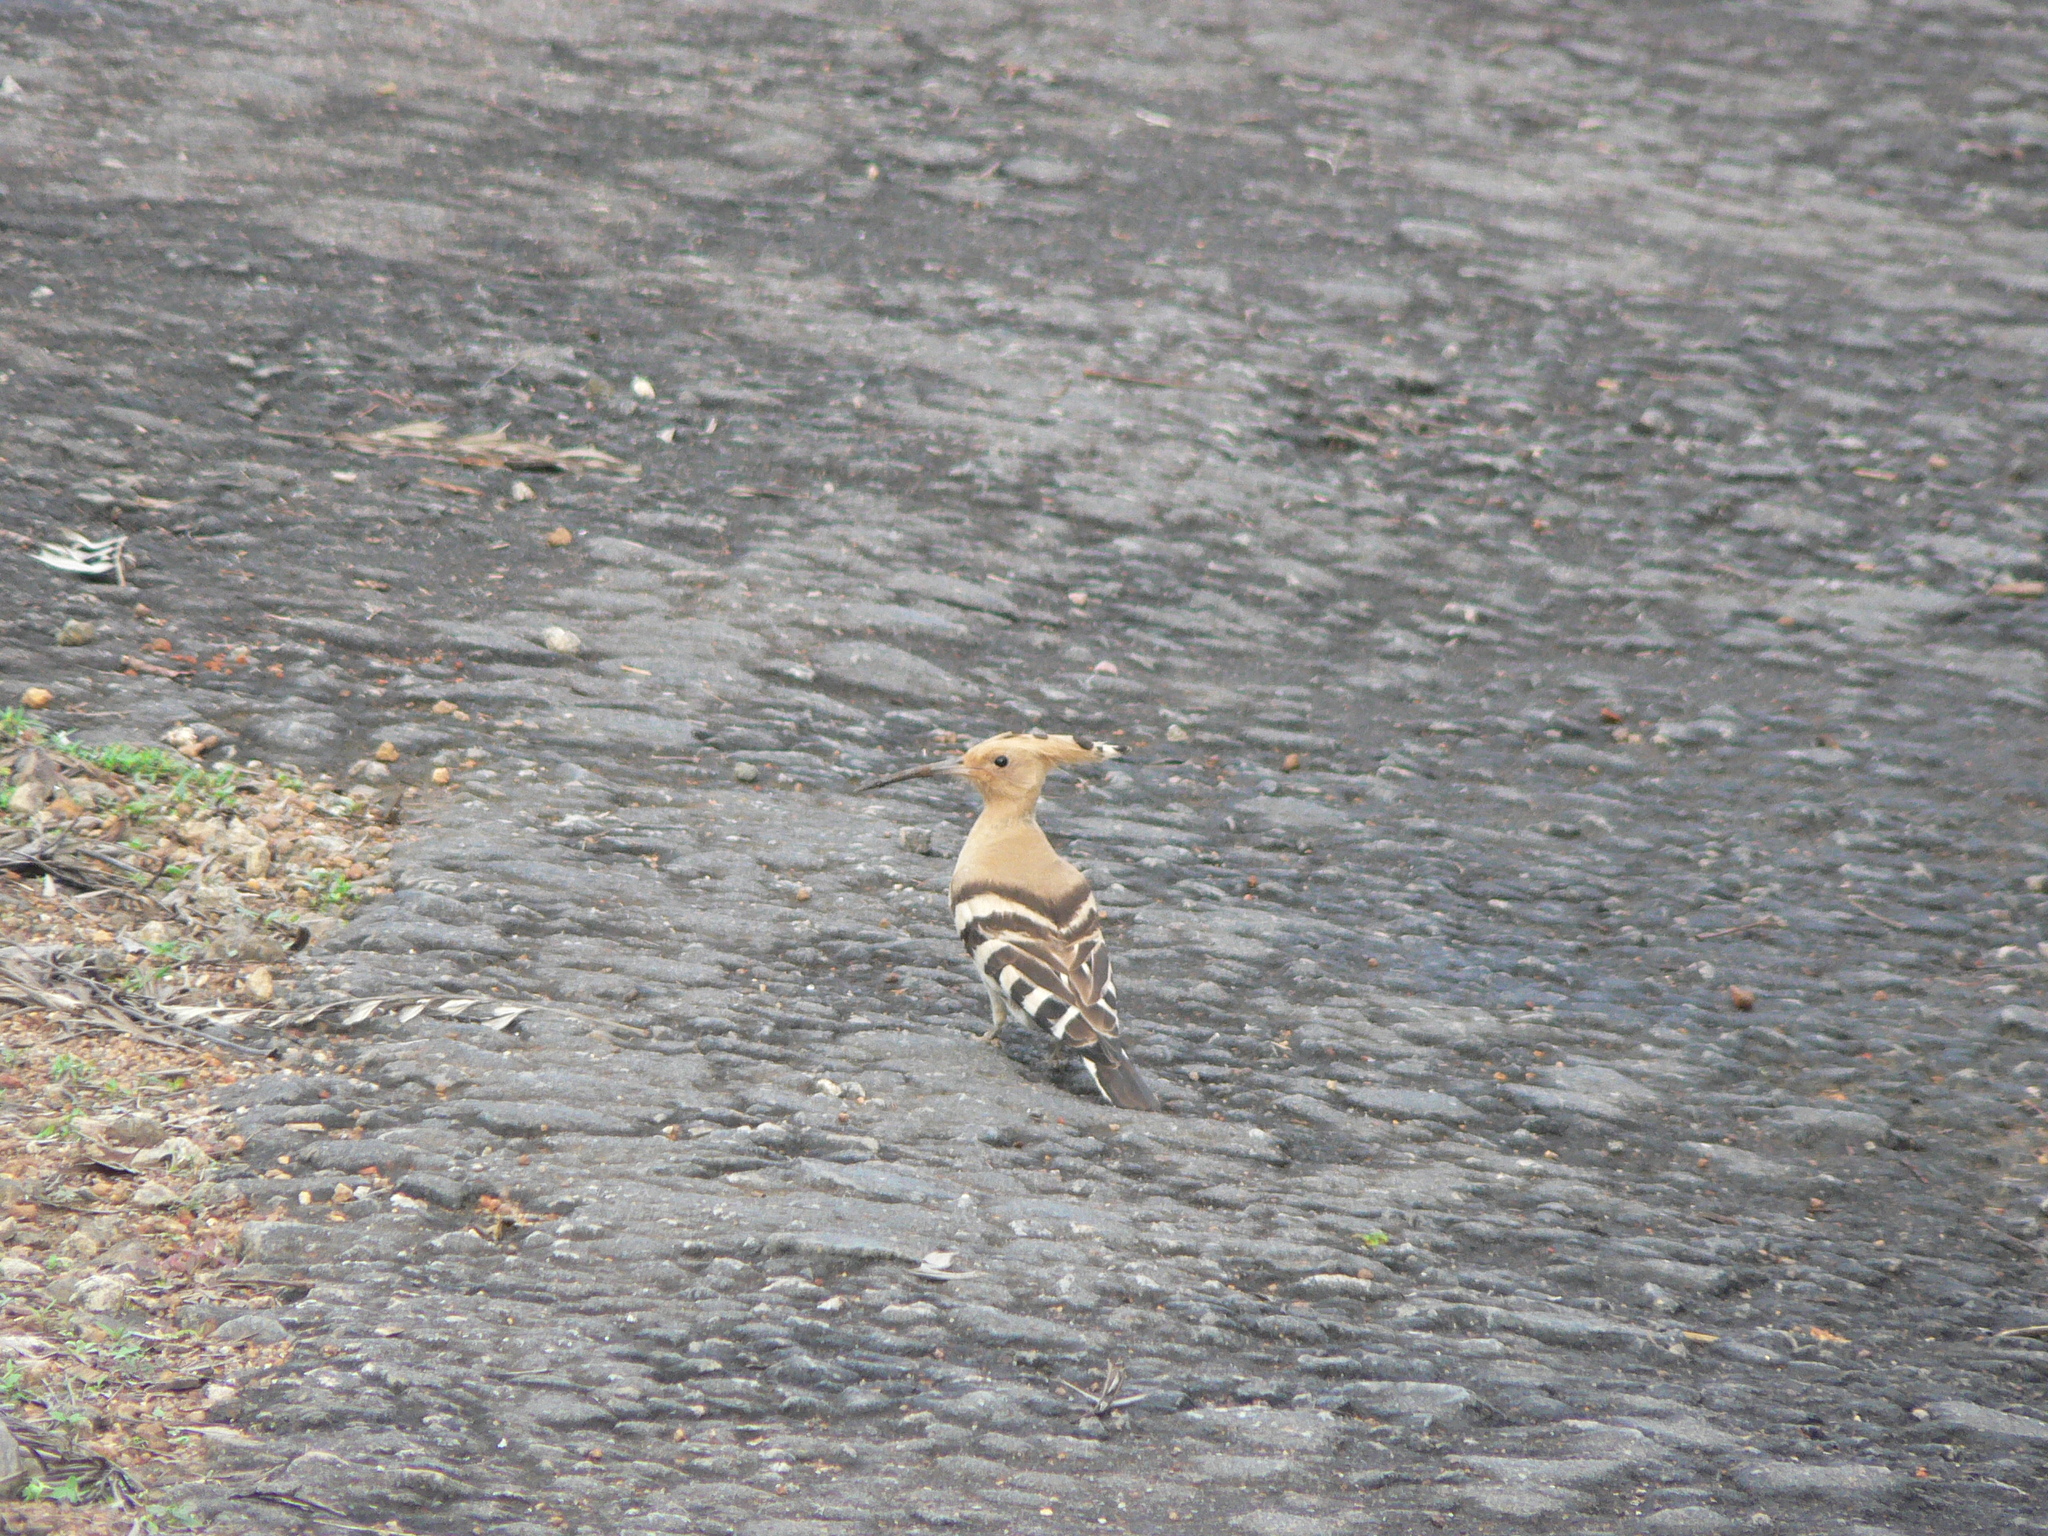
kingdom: Animalia
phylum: Chordata
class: Aves
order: Bucerotiformes
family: Upupidae
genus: Upupa
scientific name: Upupa epops
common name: Eurasian hoopoe
